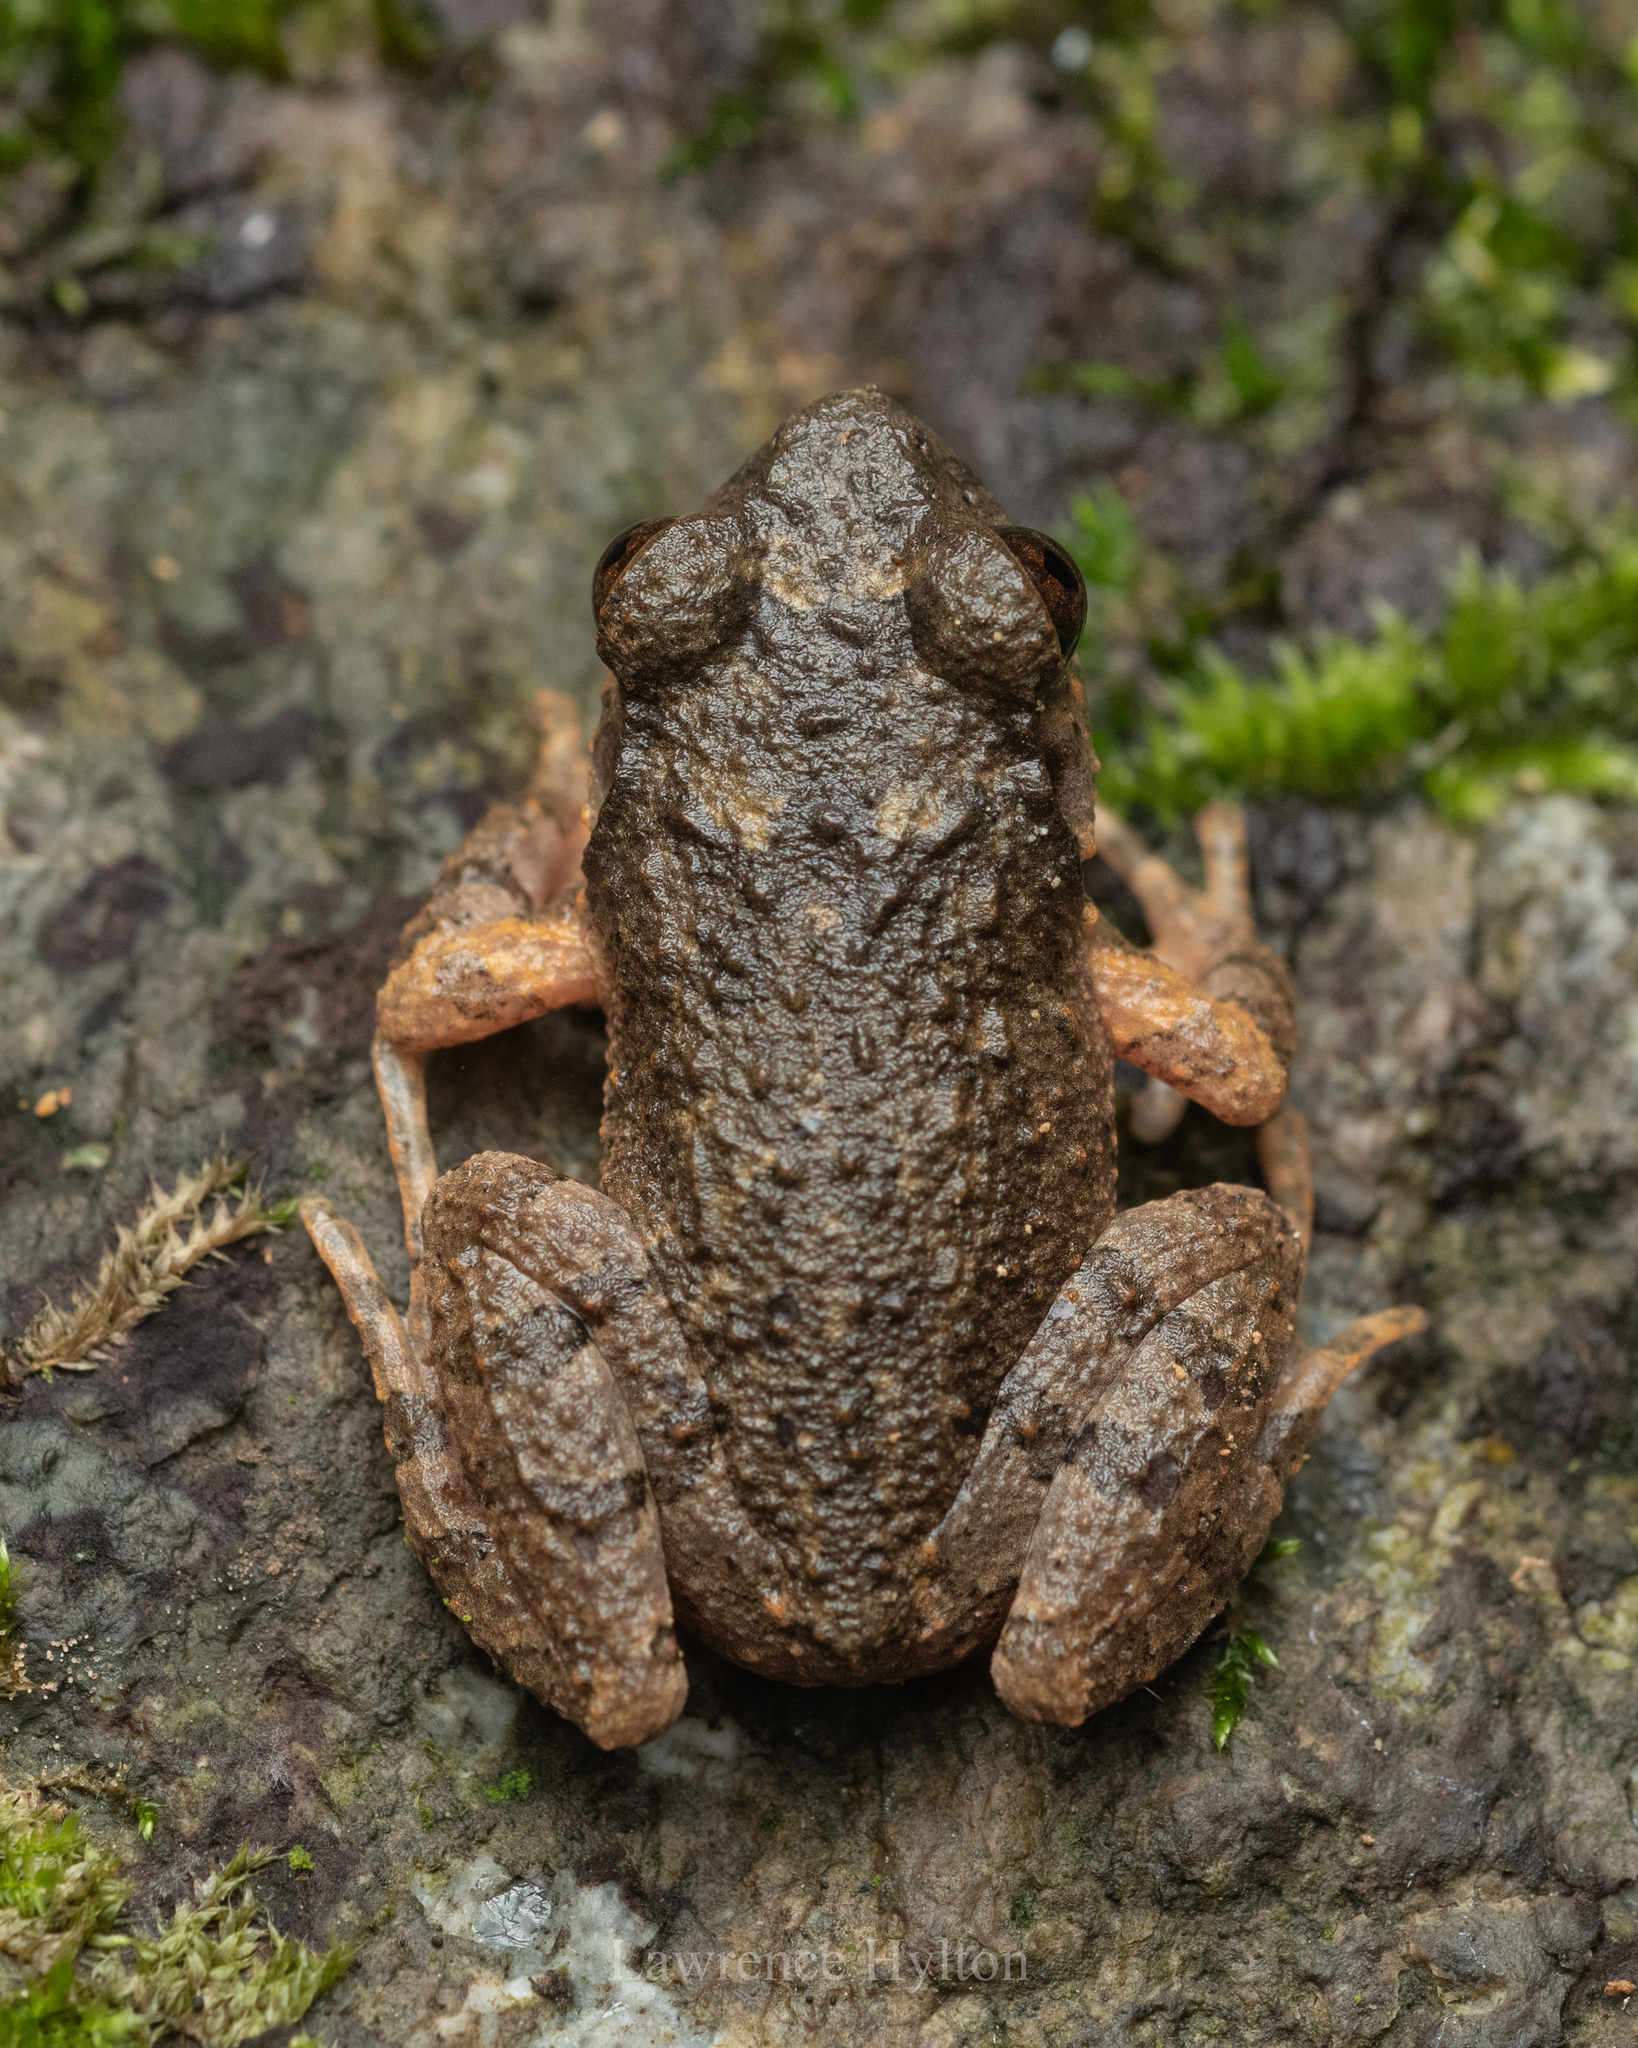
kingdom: Animalia
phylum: Chordata
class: Amphibia
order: Anura
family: Megophryidae
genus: Leptobrachella
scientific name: Leptobrachella laui
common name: Lau's leaf little toad
